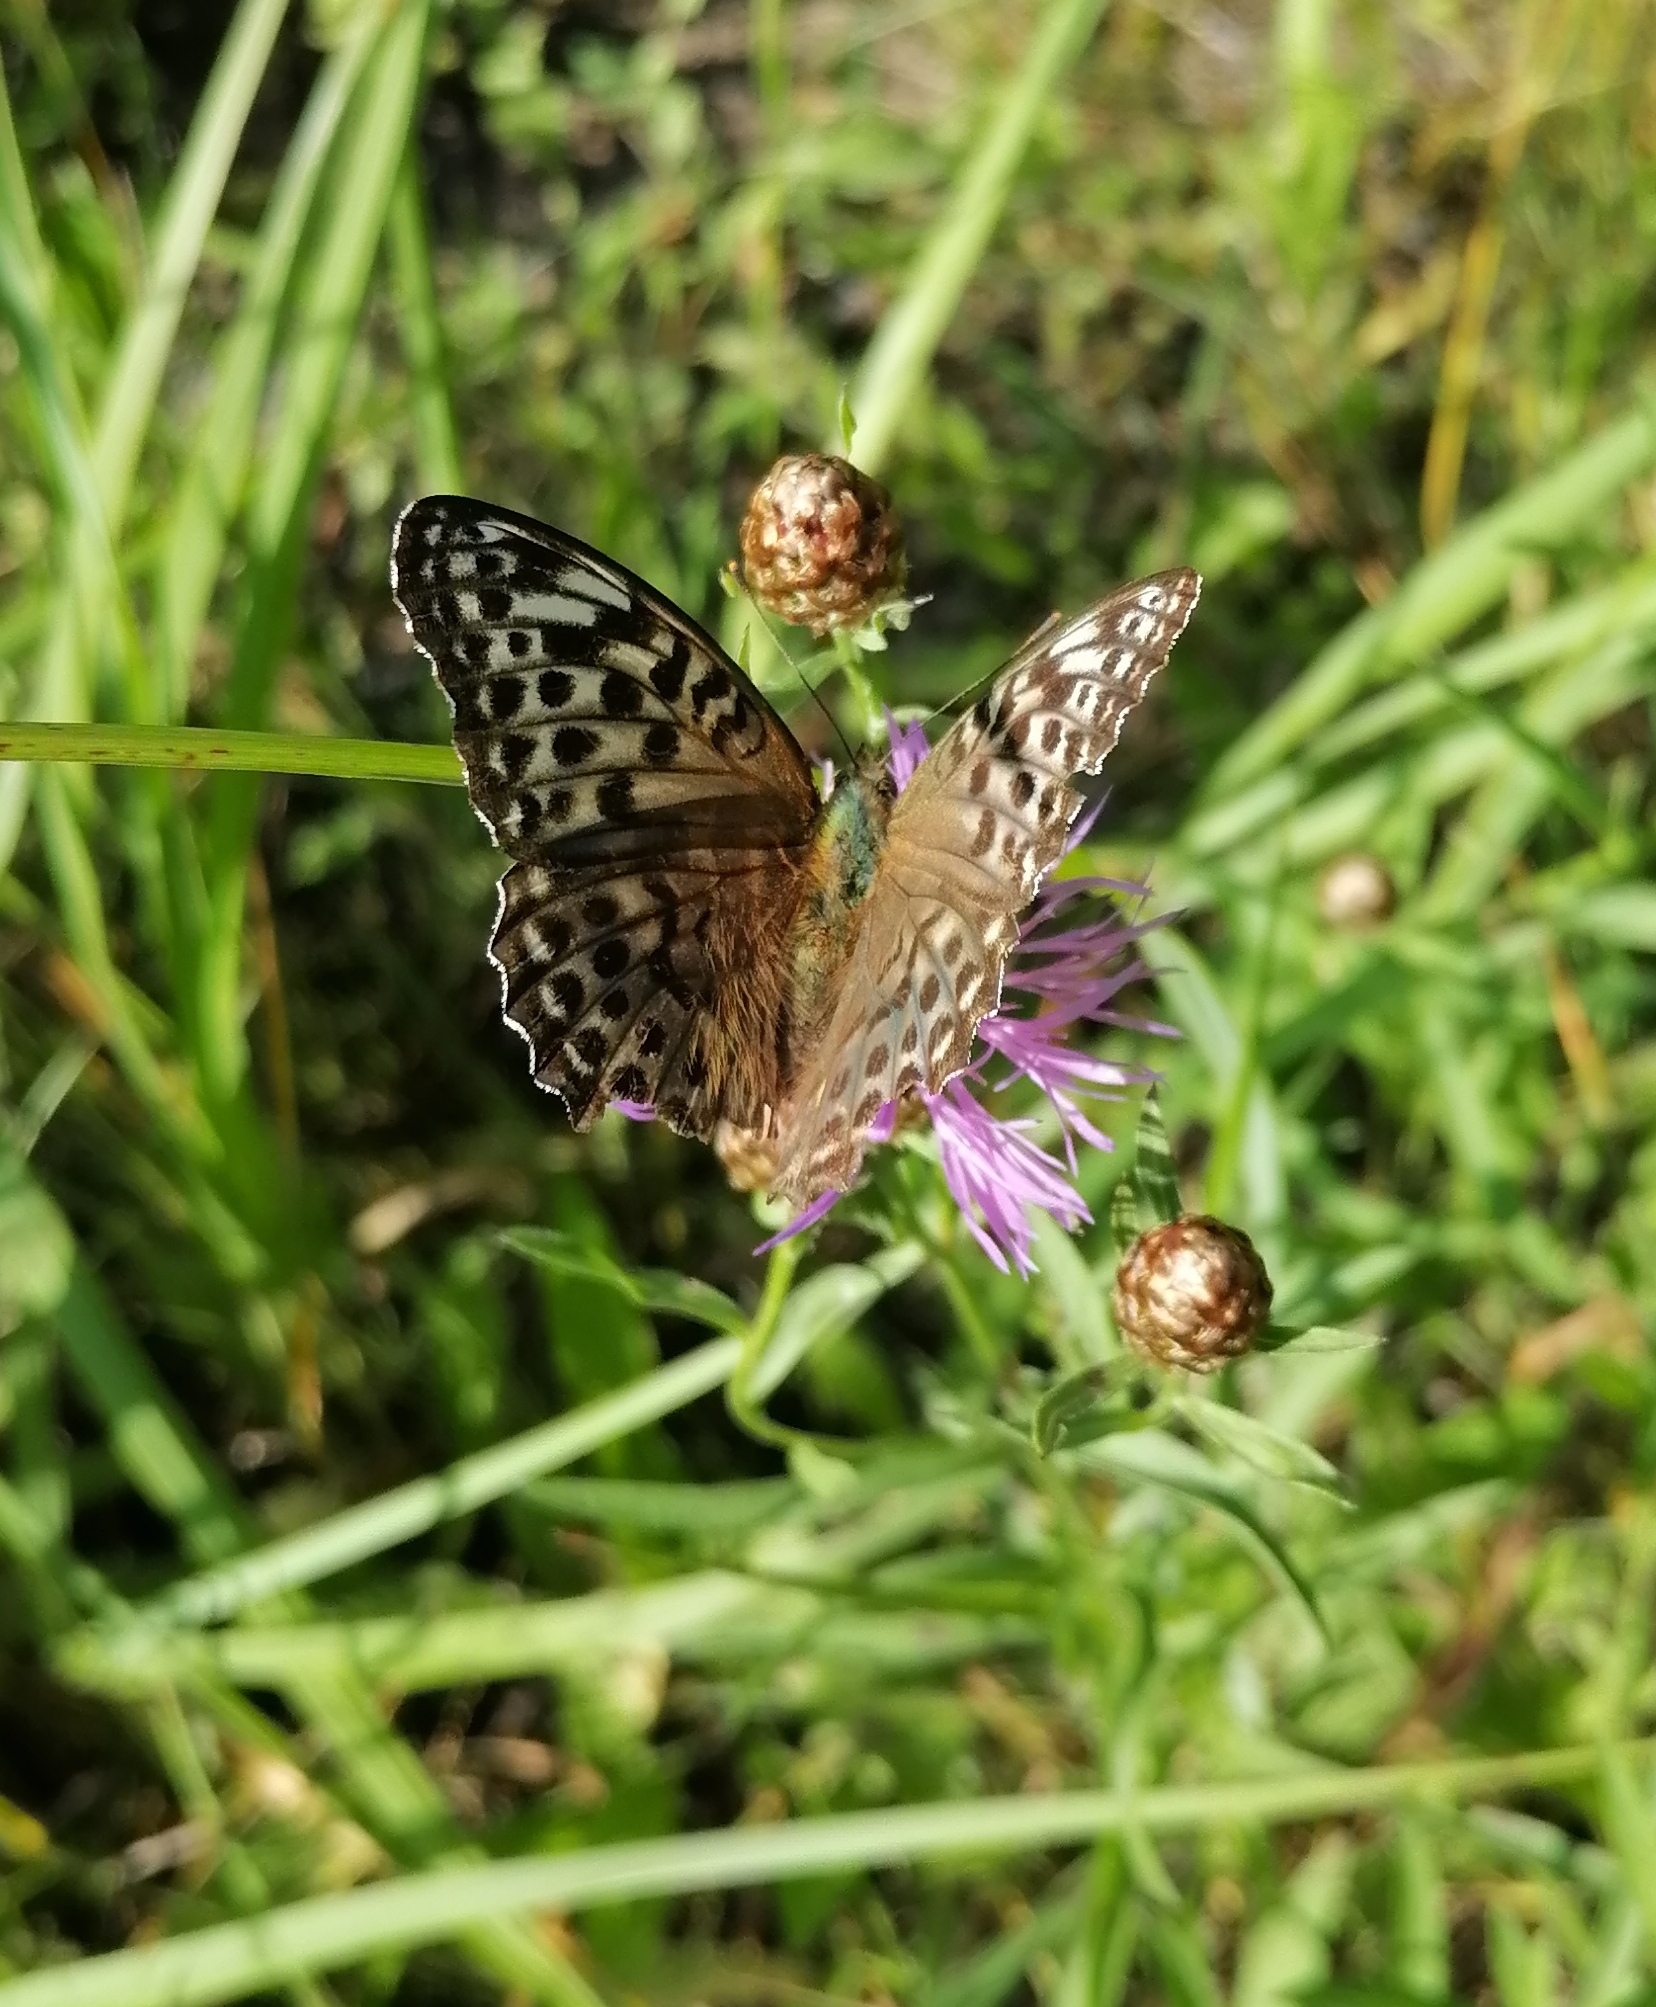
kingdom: Animalia
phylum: Arthropoda
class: Insecta
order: Lepidoptera
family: Nymphalidae
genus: Argynnis
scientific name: Argynnis paphia
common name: Silver-washed fritillary
